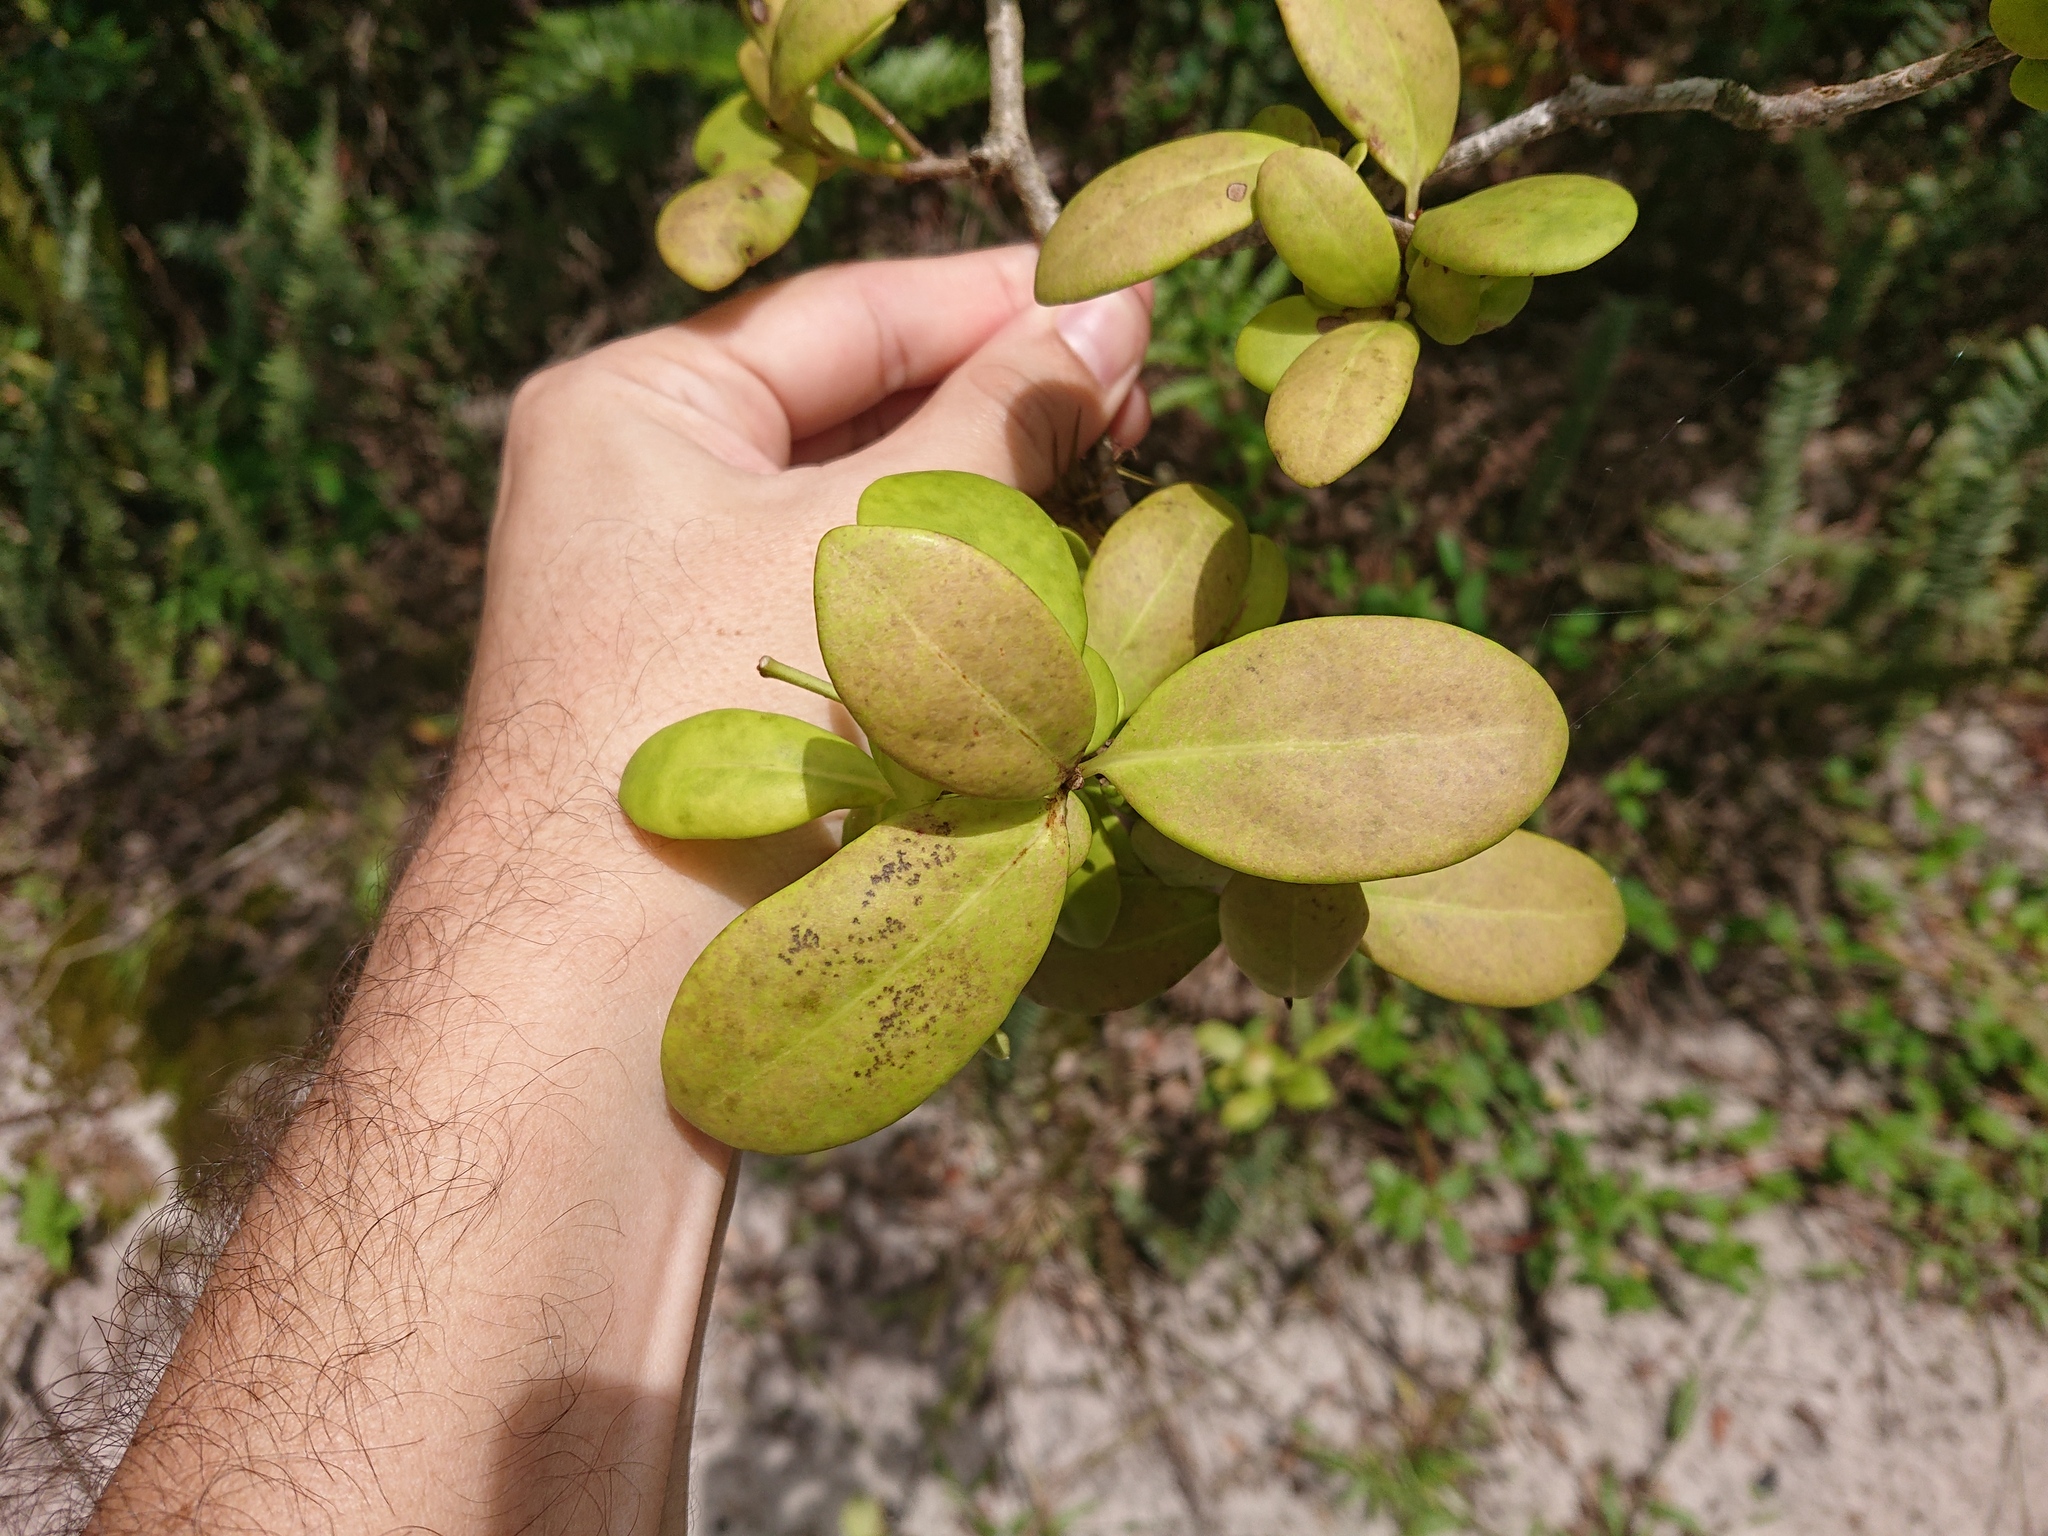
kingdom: Plantae
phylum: Tracheophyta
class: Magnoliopsida
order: Caryophyllales
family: Nyctaginaceae
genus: Guapira
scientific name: Guapira opposita
